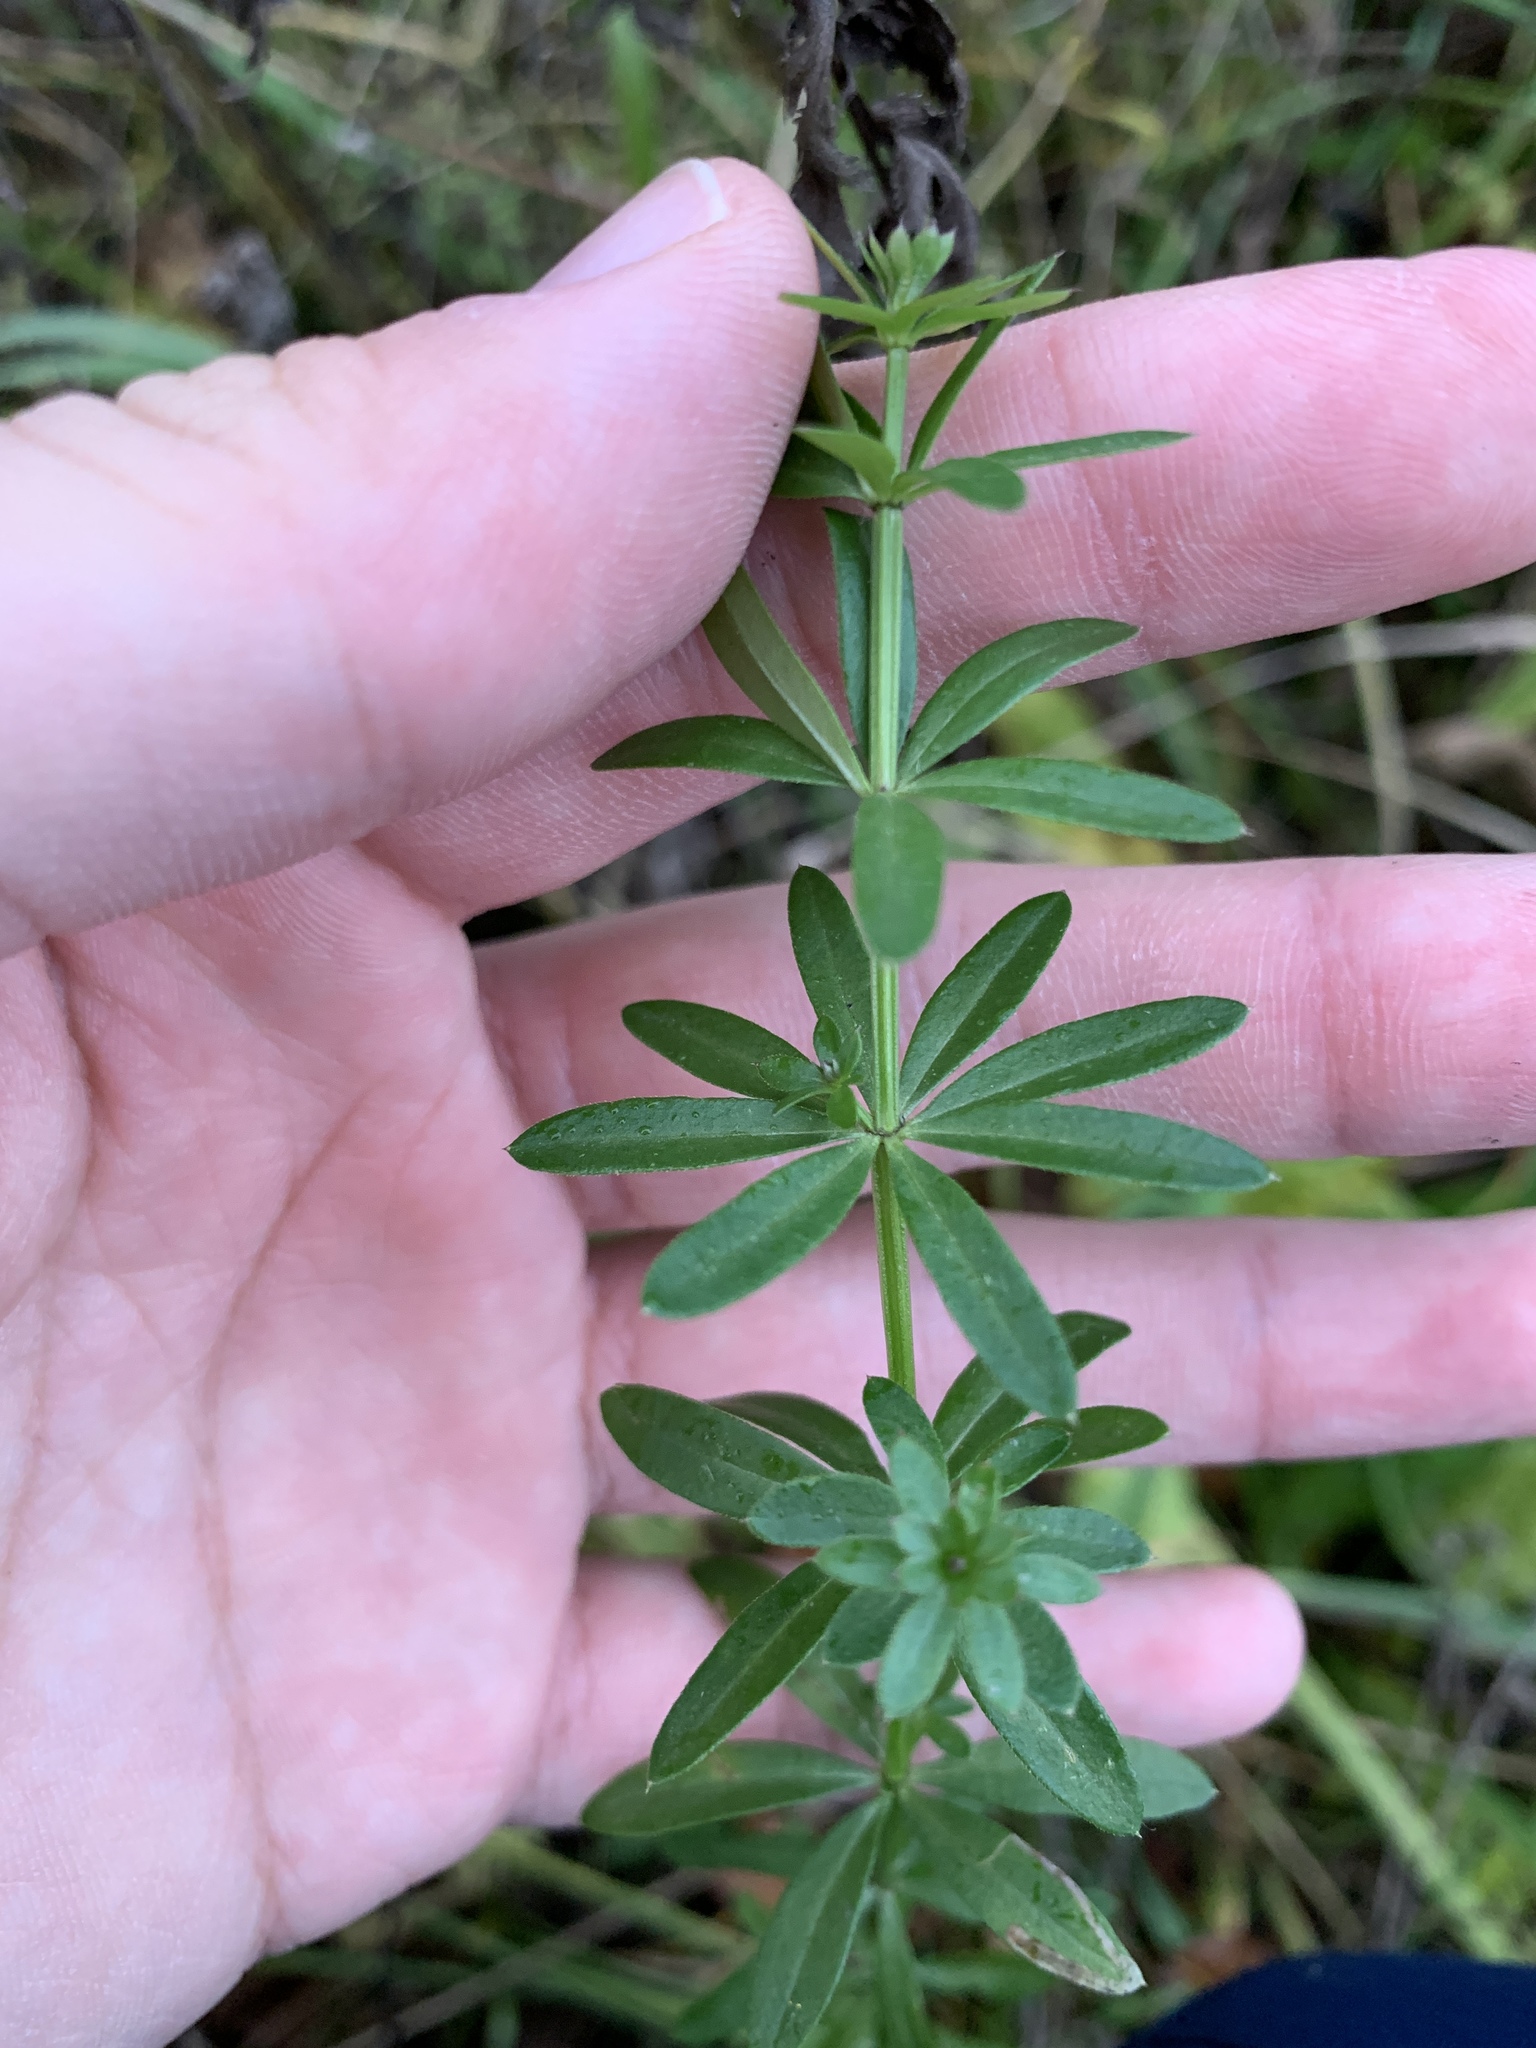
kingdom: Plantae
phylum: Tracheophyta
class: Magnoliopsida
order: Gentianales
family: Rubiaceae
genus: Galium
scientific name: Galium mollugo
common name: Hedge bedstraw
